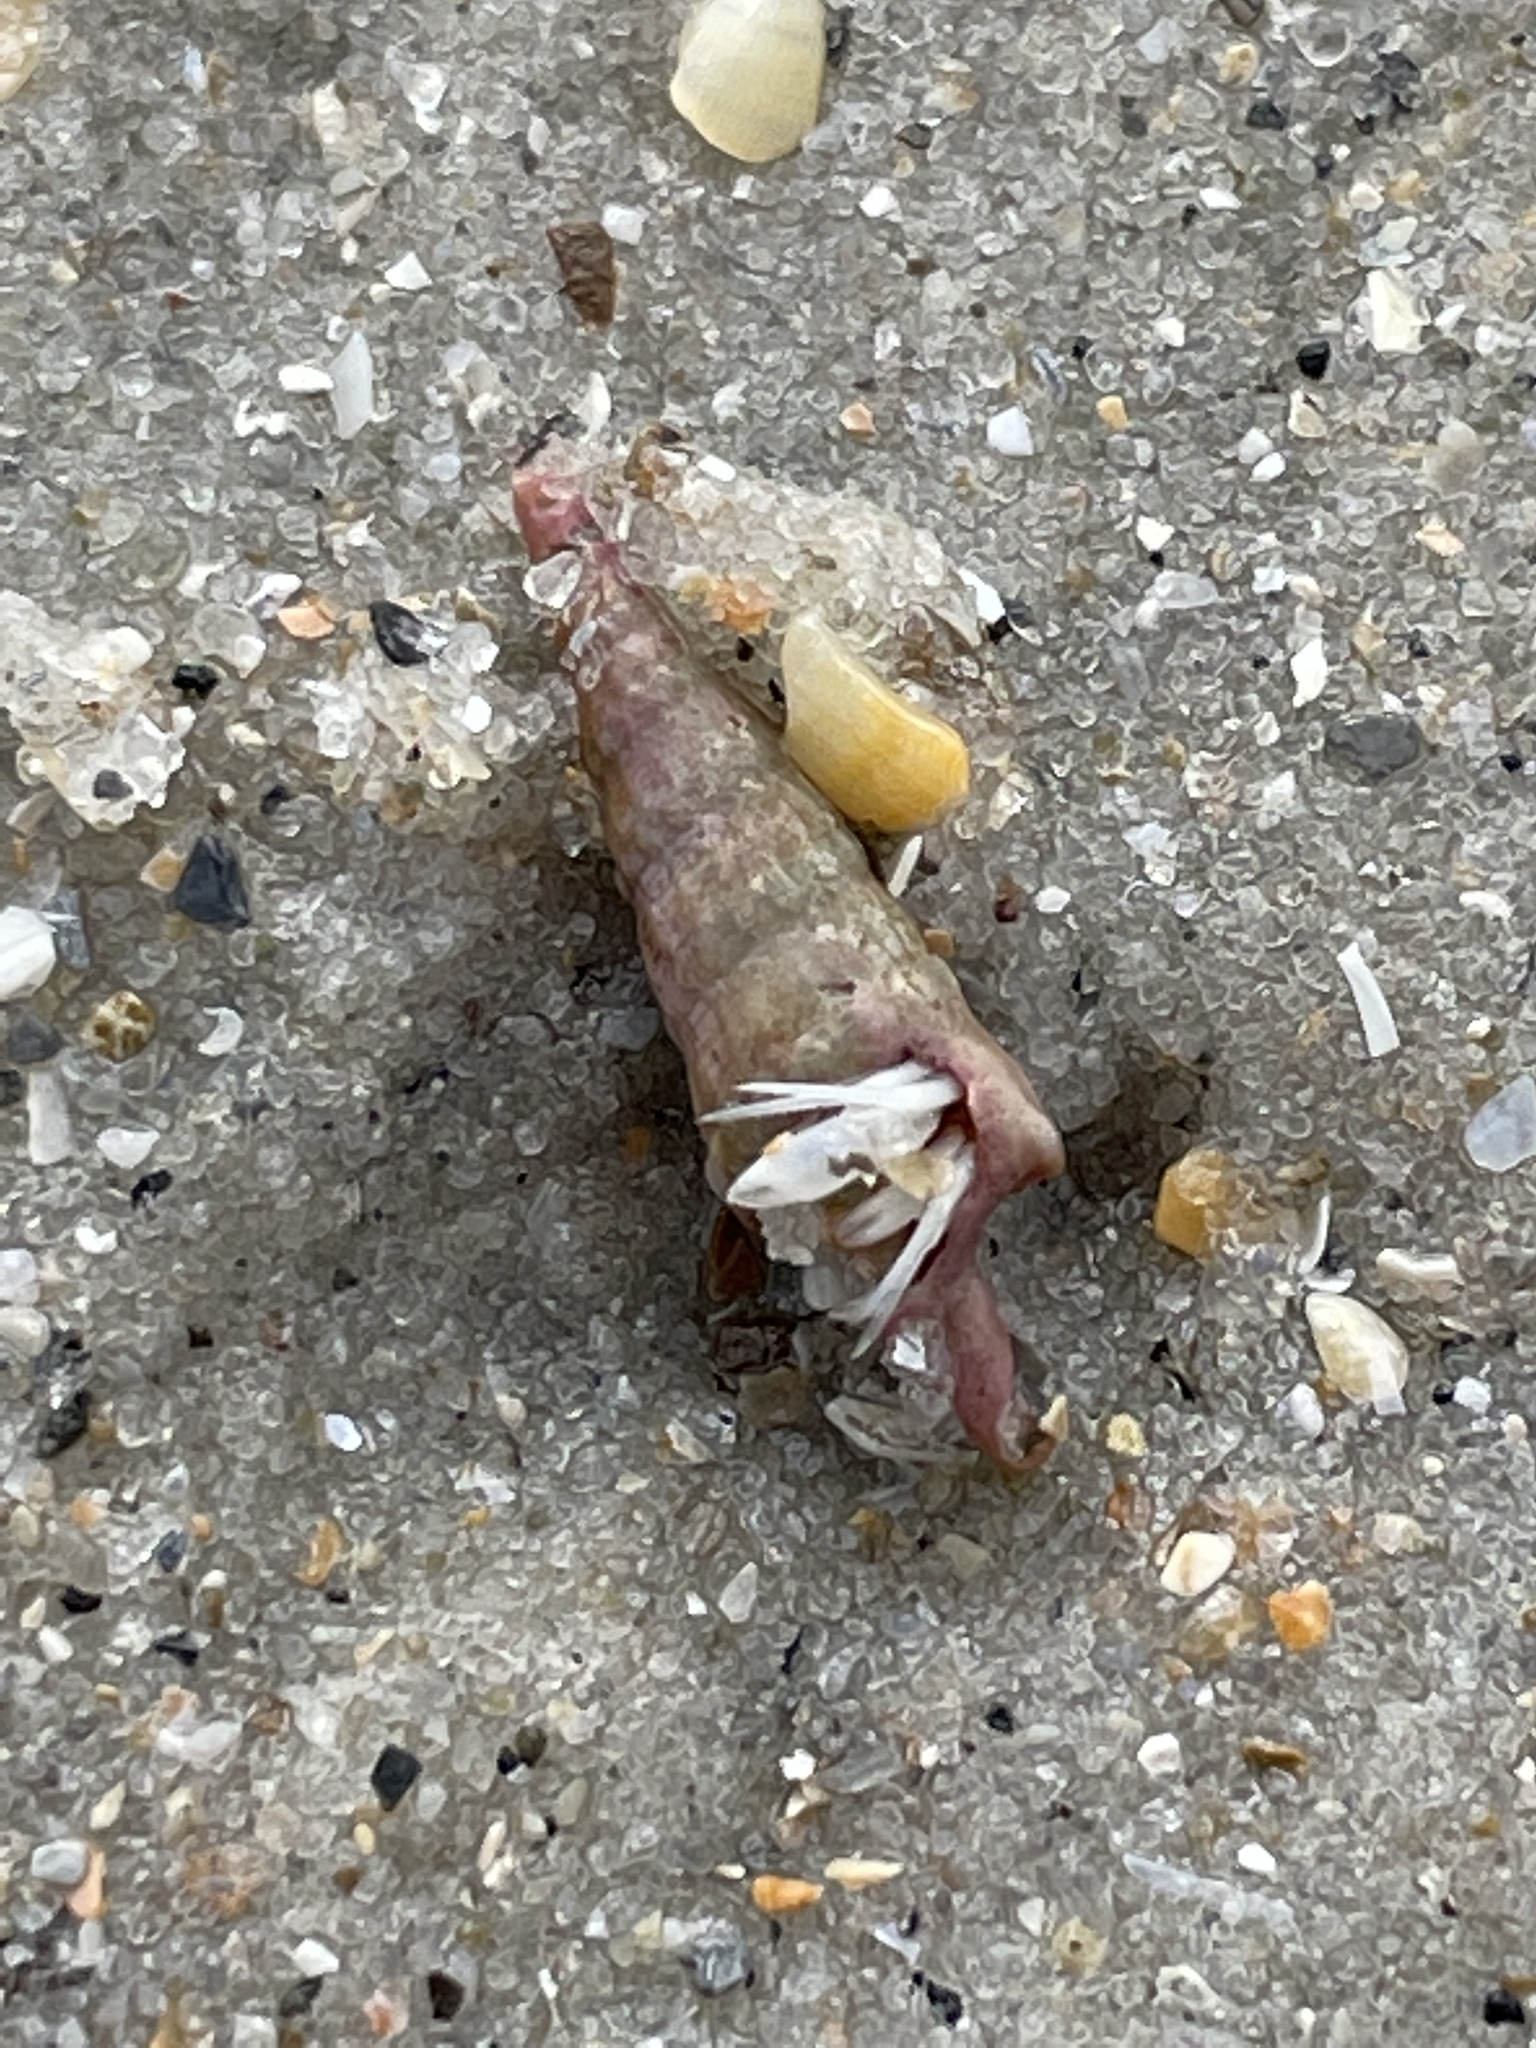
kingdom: Animalia
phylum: Arthropoda
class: Malacostraca
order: Decapoda
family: Paguridae
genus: Pagurus
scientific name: Pagurus longicarpus
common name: Long-armed hermit crab
